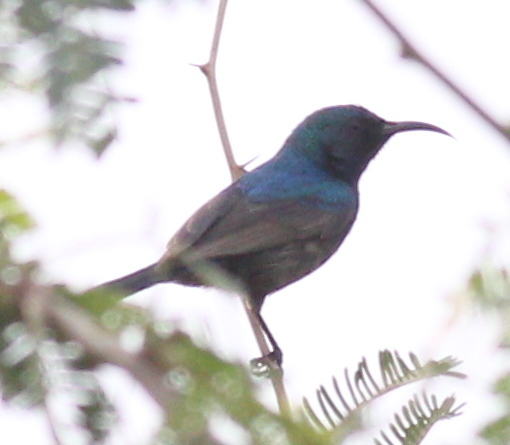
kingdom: Animalia
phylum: Chordata
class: Aves
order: Passeriformes
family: Nectariniidae
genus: Cinnyris
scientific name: Cinnyris osea
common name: Palestine sunbird
